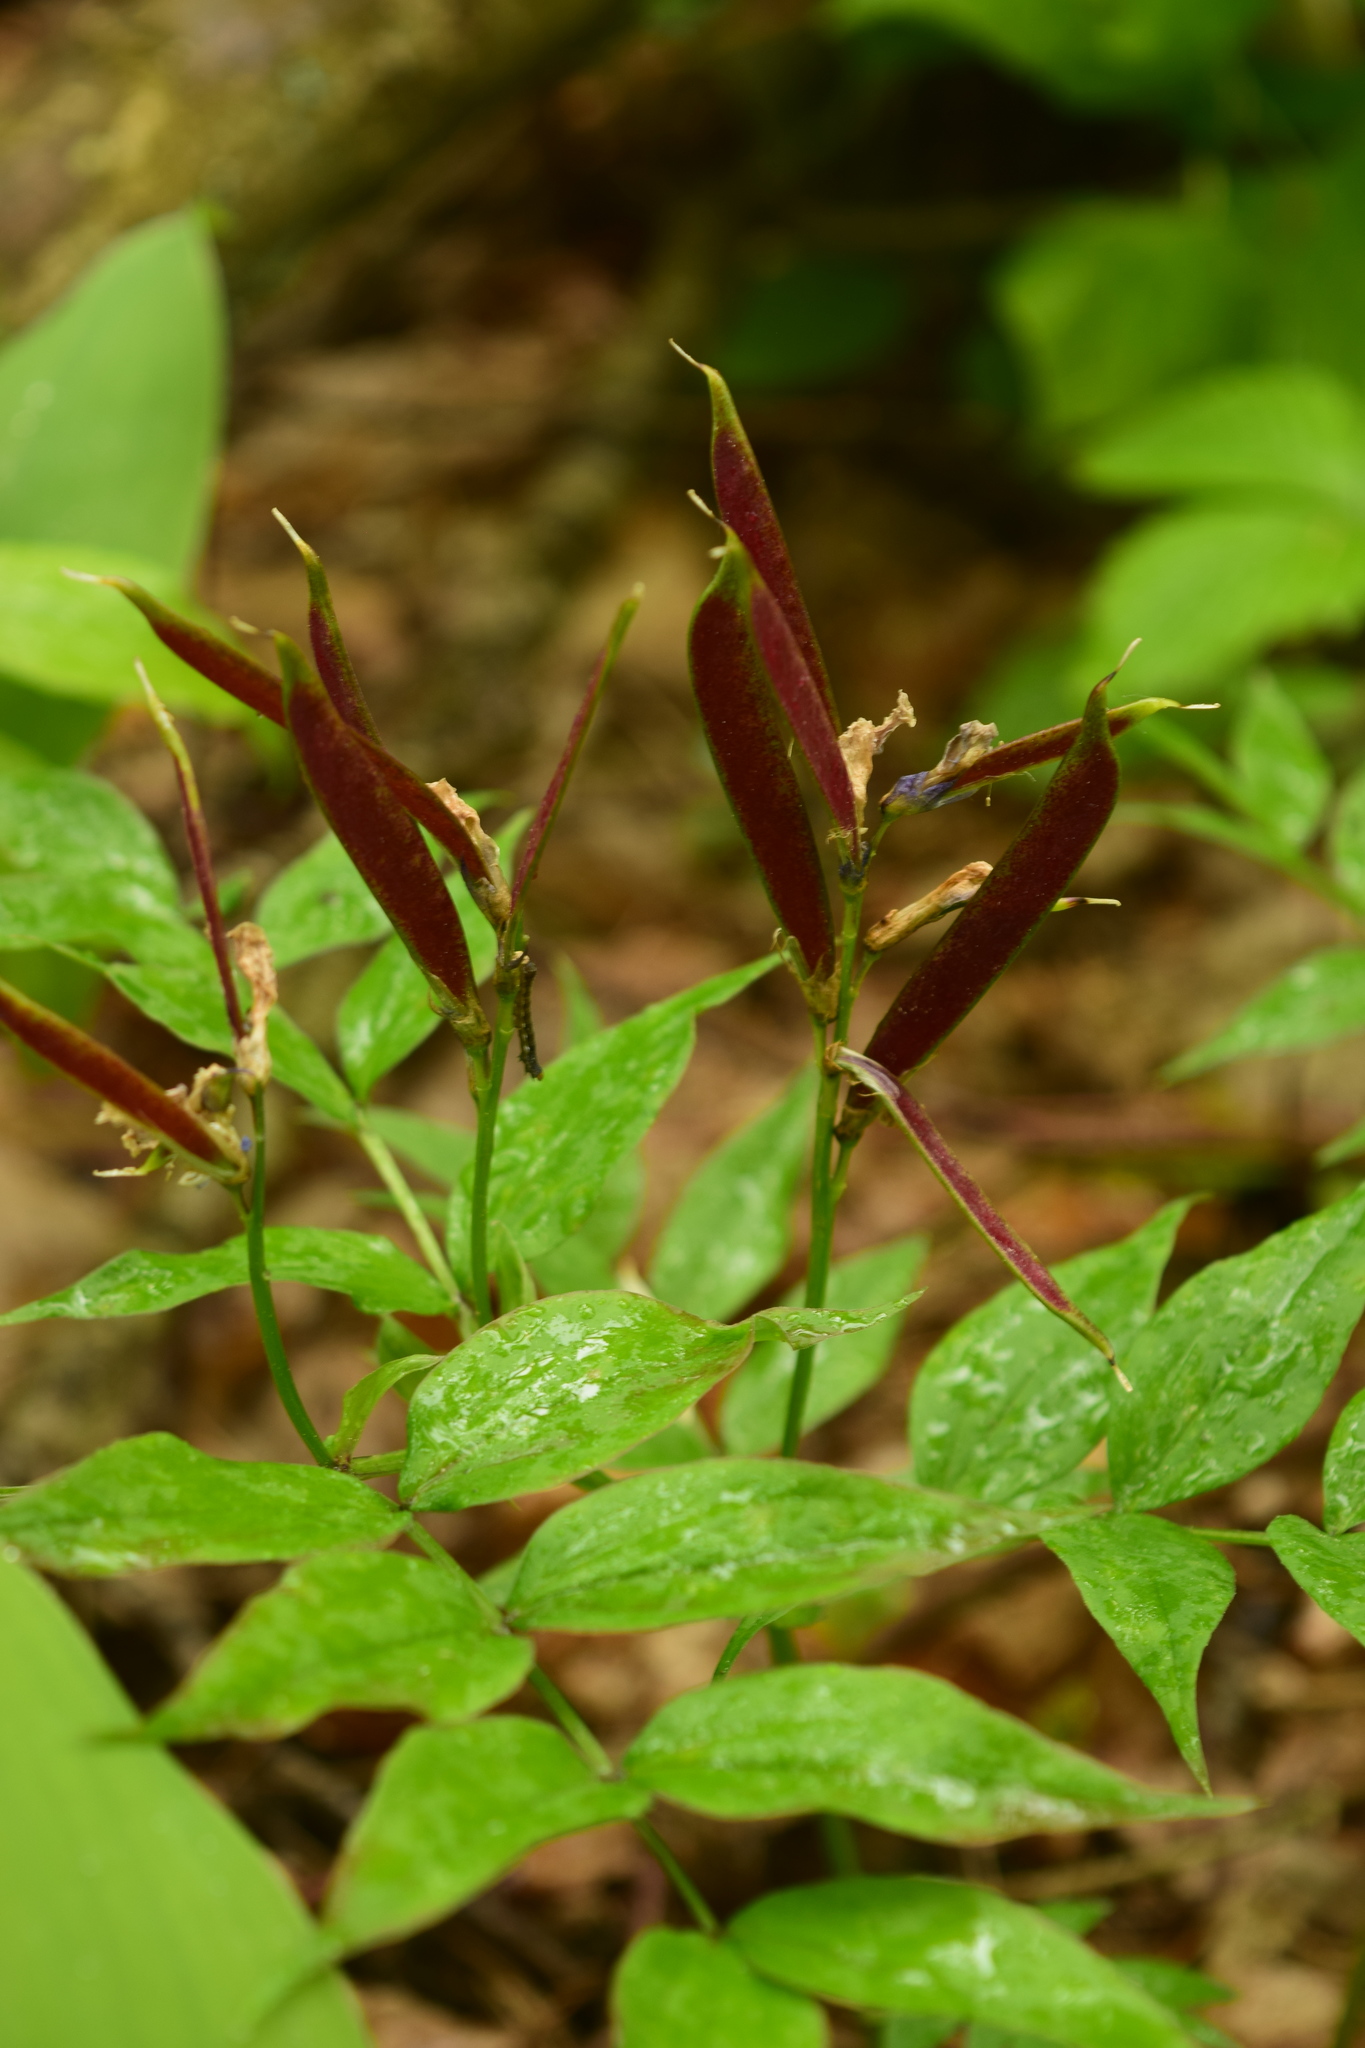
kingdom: Plantae
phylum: Tracheophyta
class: Magnoliopsida
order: Fabales
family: Fabaceae
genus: Lathyrus
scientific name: Lathyrus vernus
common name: Spring pea
